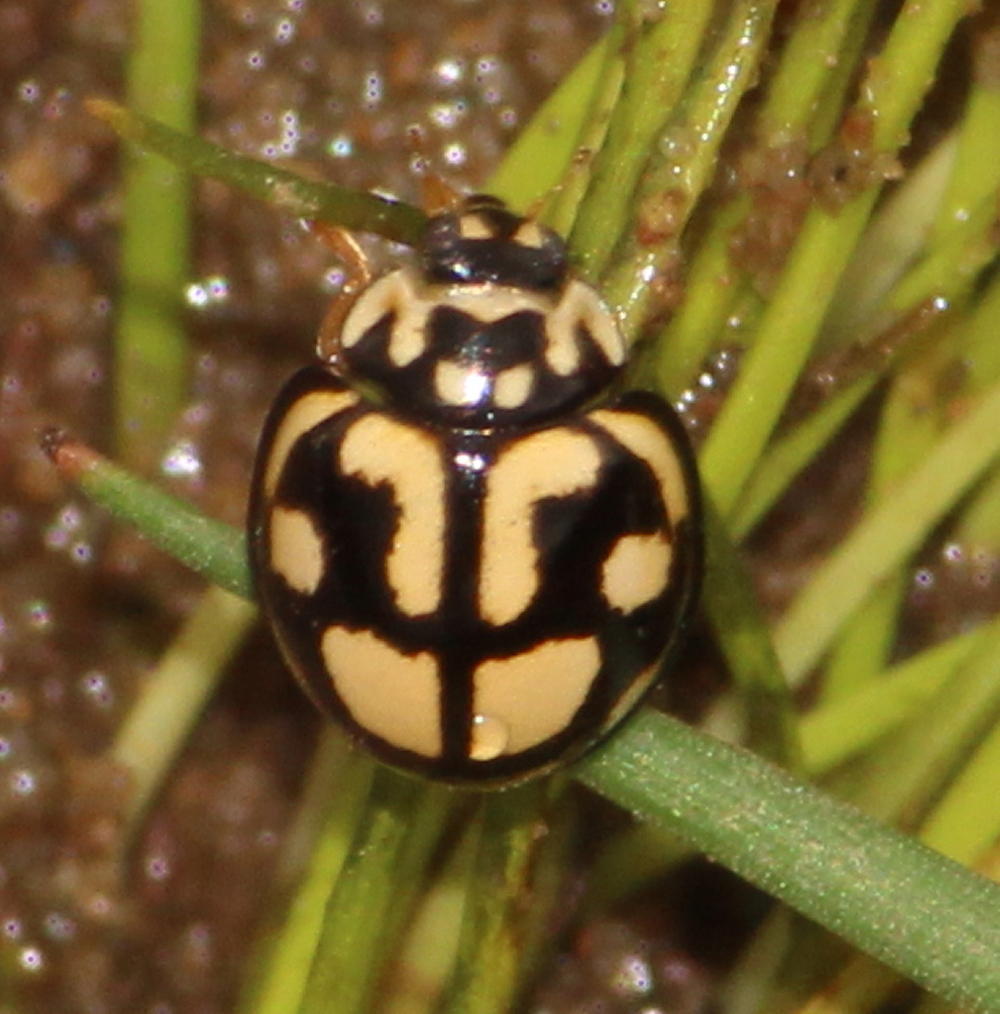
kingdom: Animalia
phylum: Arthropoda
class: Insecta
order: Coleoptera
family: Coccinellidae
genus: Declivitata
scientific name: Declivitata
